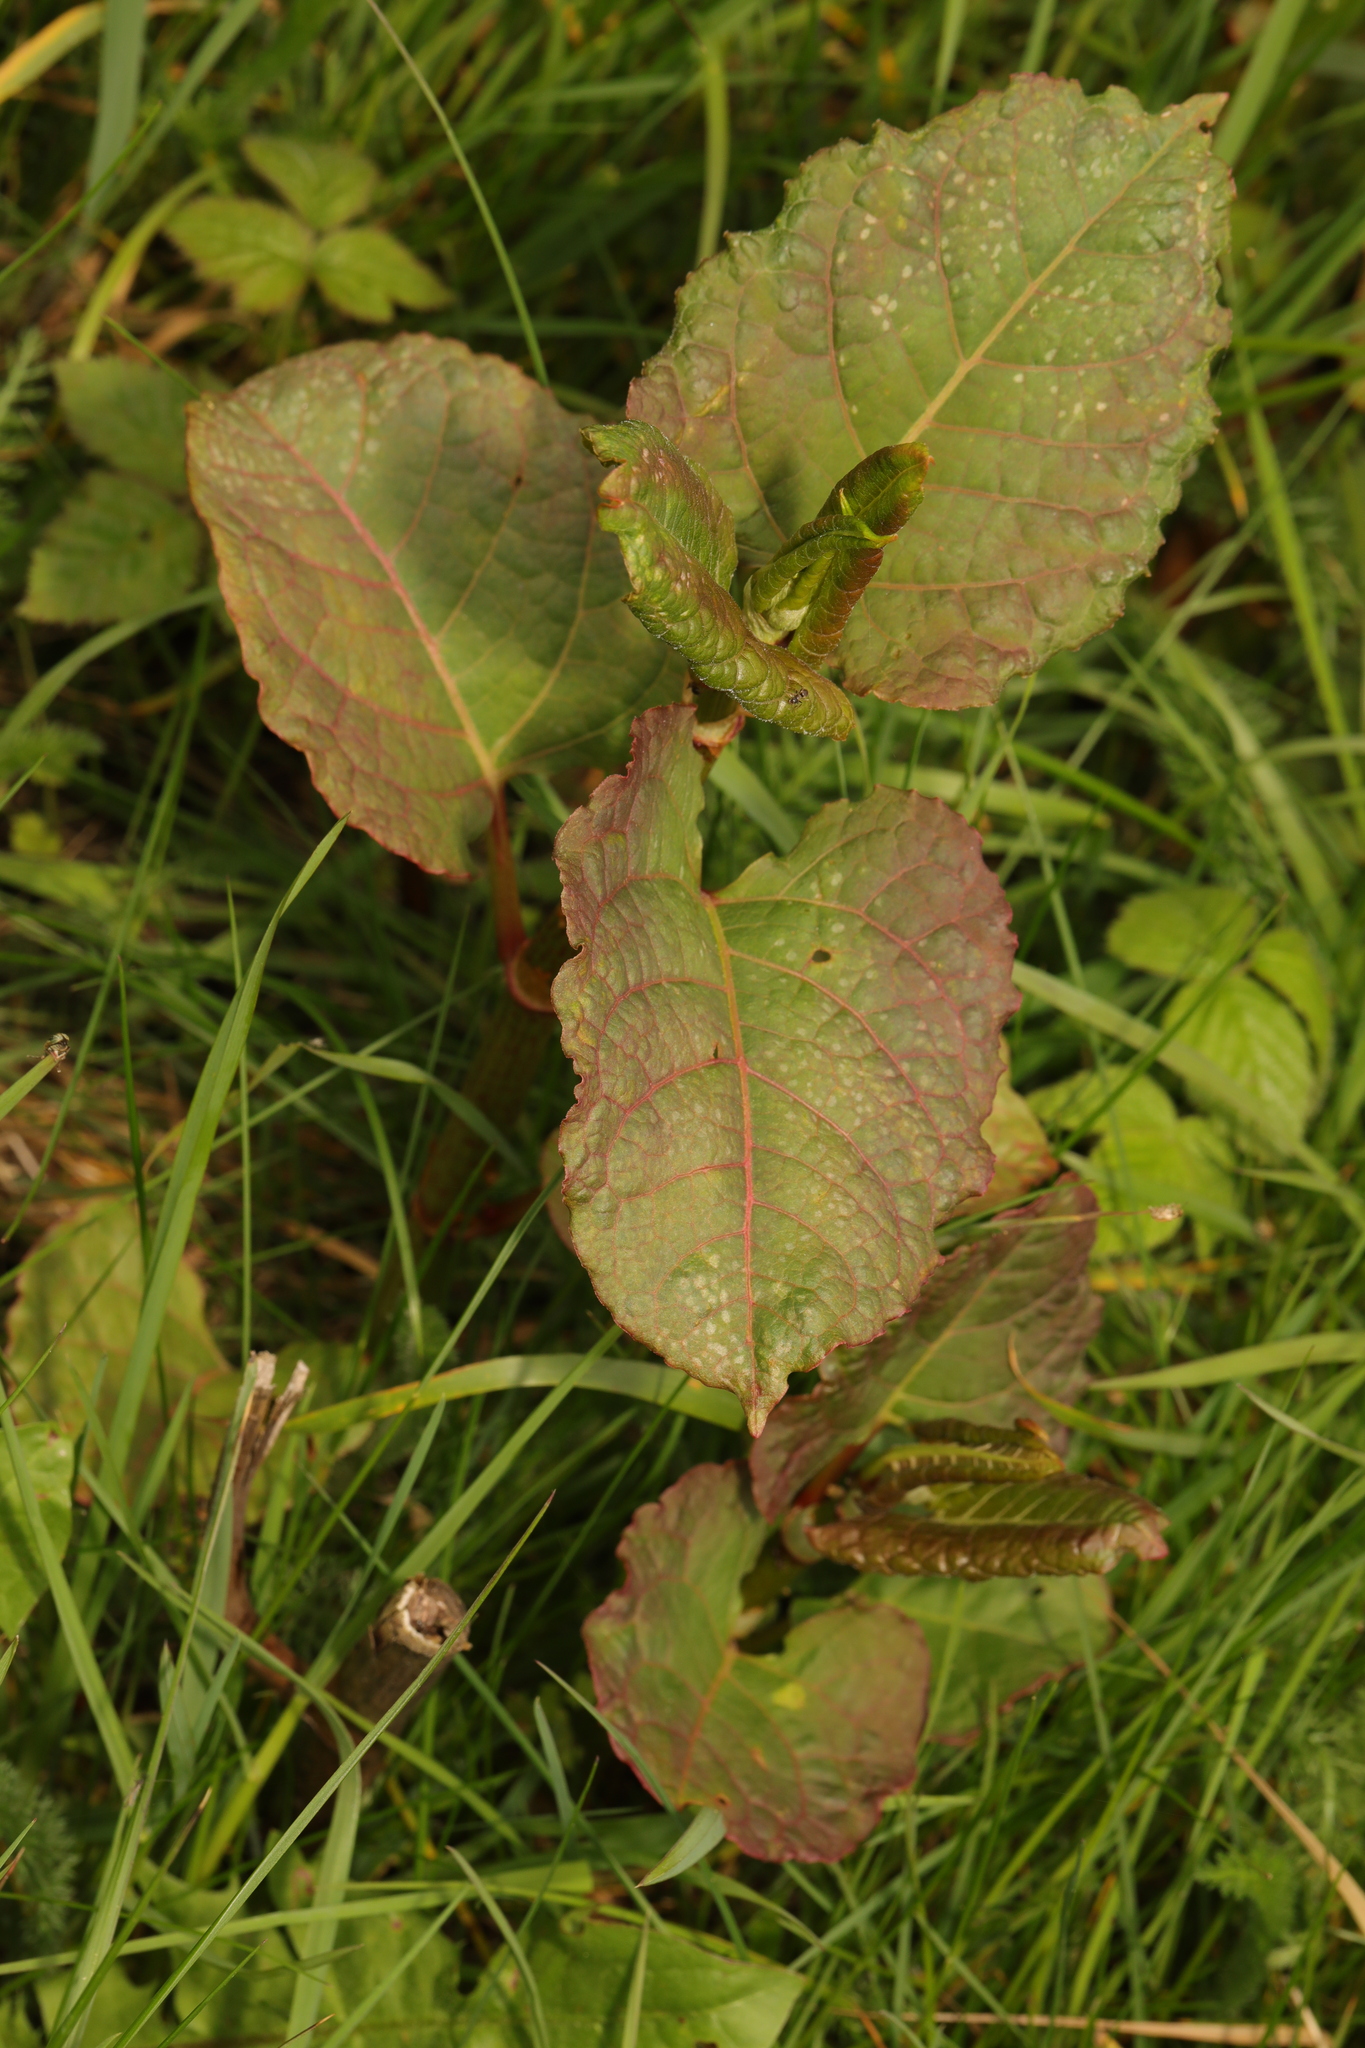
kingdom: Plantae
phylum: Tracheophyta
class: Magnoliopsida
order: Caryophyllales
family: Polygonaceae
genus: Reynoutria
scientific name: Reynoutria bohemica
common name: Bohemian knotweed
